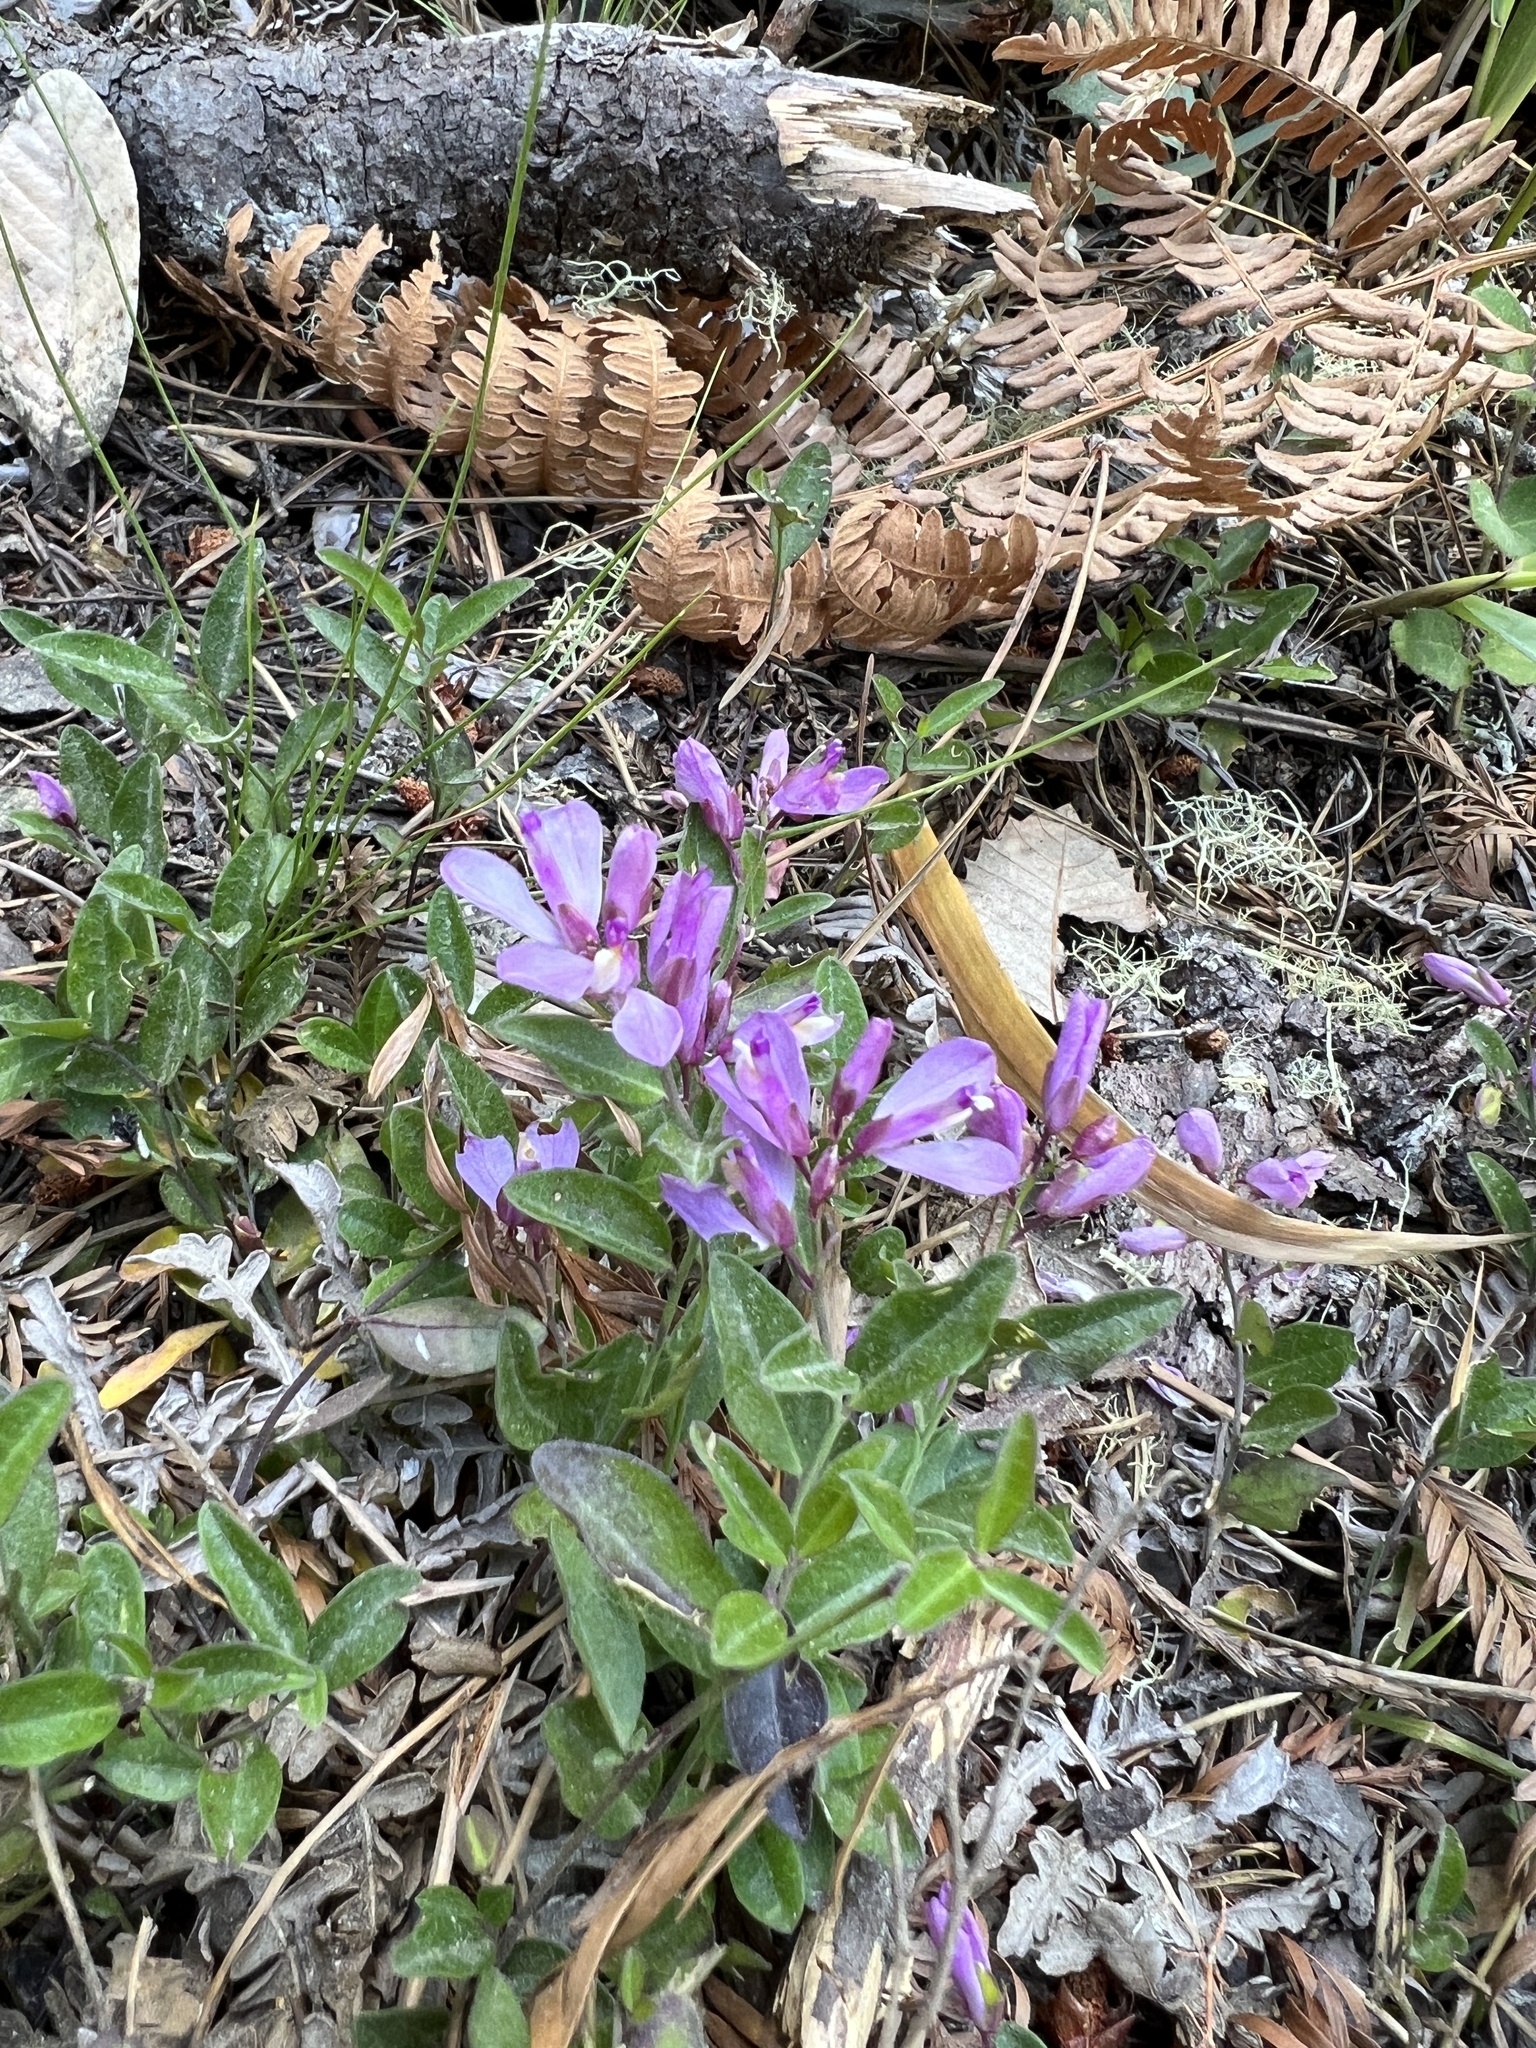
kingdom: Plantae
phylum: Tracheophyta
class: Magnoliopsida
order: Fabales
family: Polygalaceae
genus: Rhinotropis
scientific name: Rhinotropis californica
